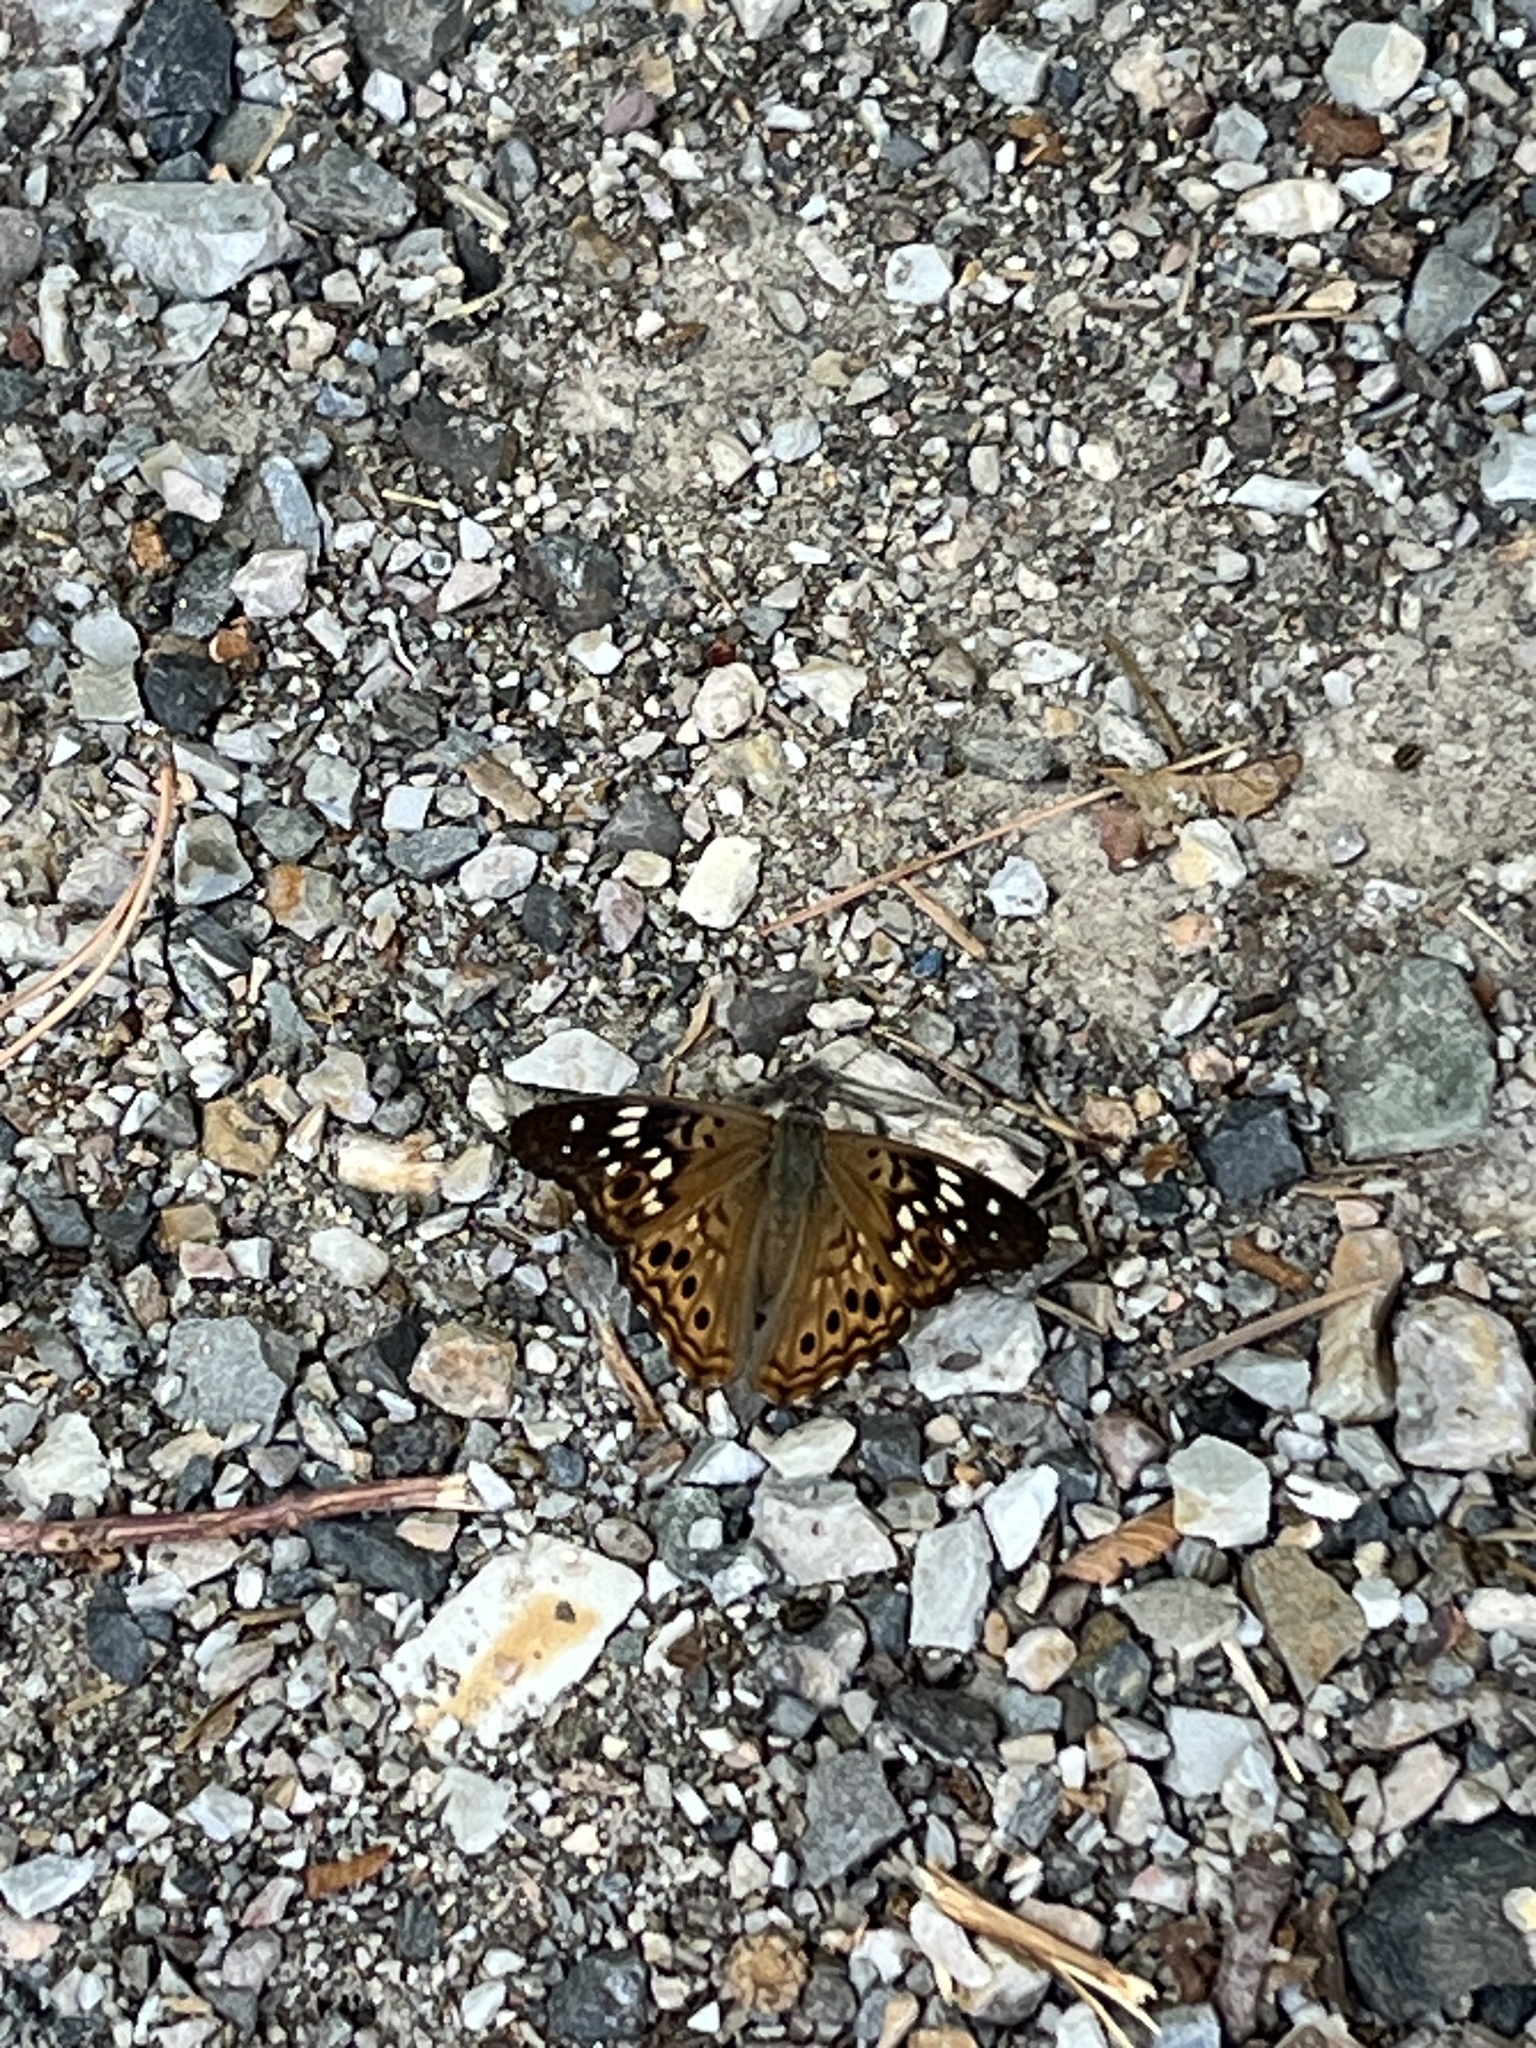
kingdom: Animalia
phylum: Arthropoda
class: Insecta
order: Lepidoptera
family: Nymphalidae
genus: Asterocampa
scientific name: Asterocampa celtis
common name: Hackberry emperor
